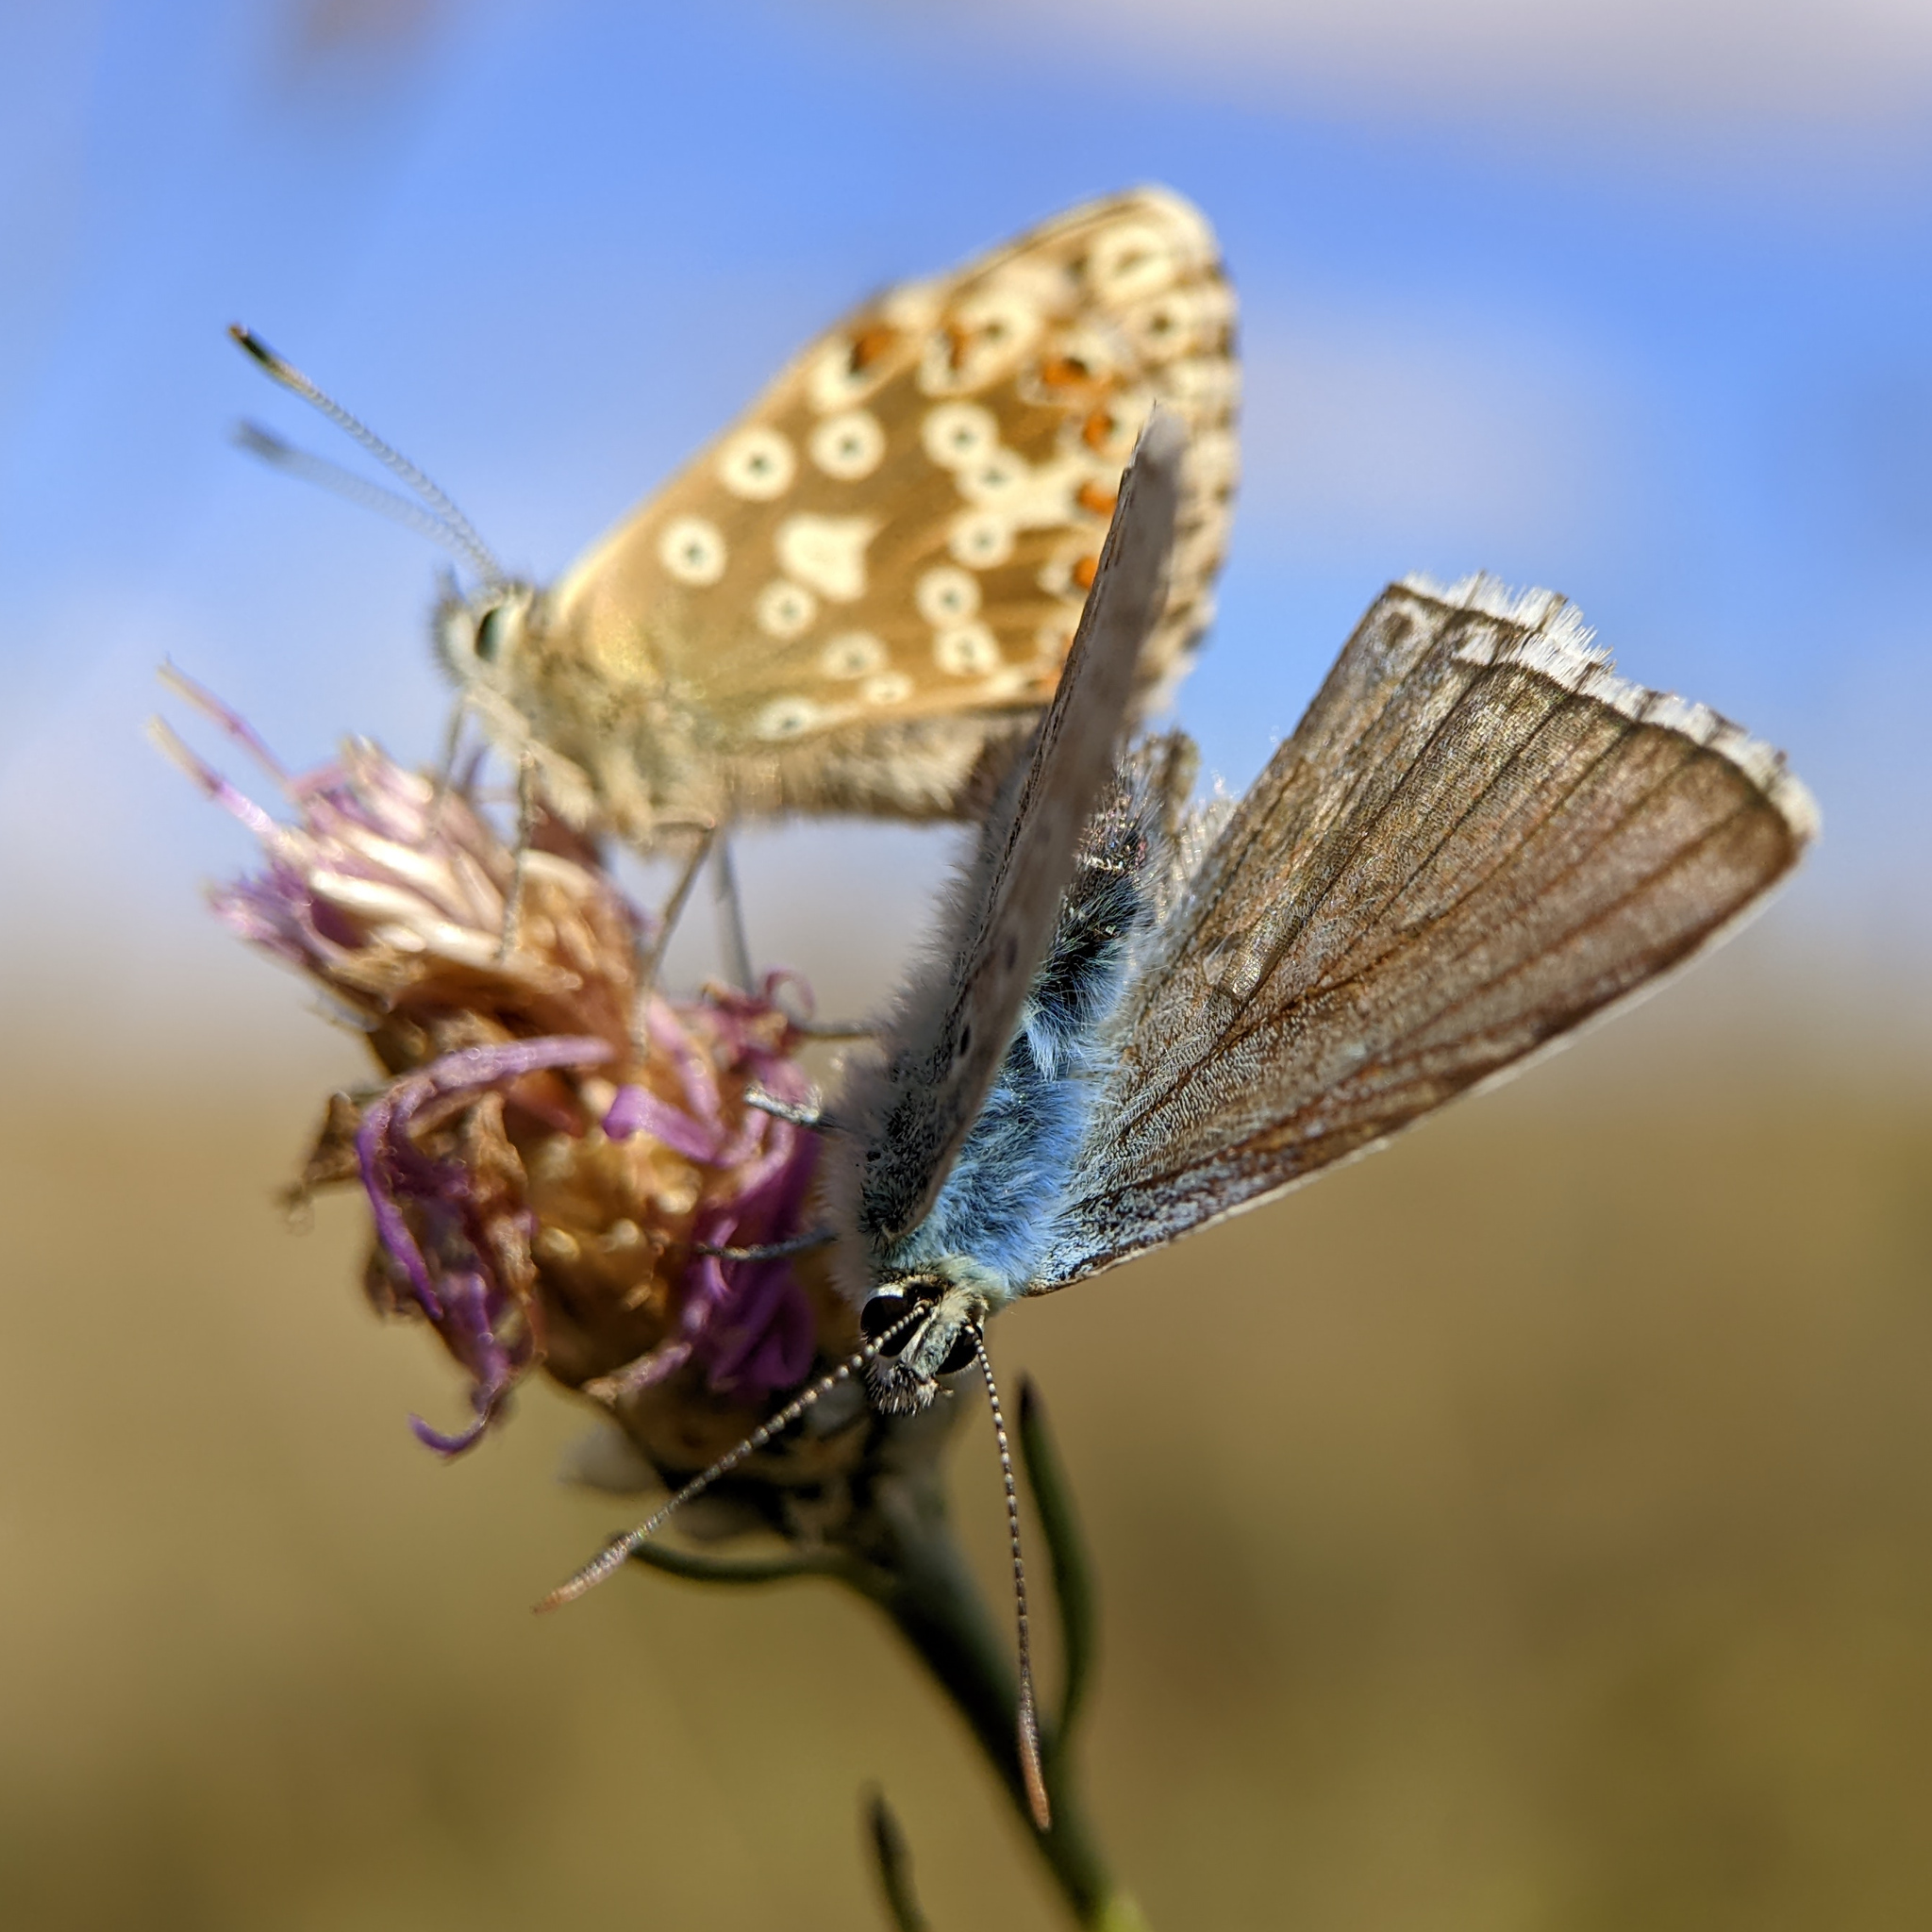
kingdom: Animalia
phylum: Arthropoda
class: Insecta
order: Lepidoptera
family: Lycaenidae
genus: Lysandra
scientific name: Lysandra coridon
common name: Chalkhill blue
